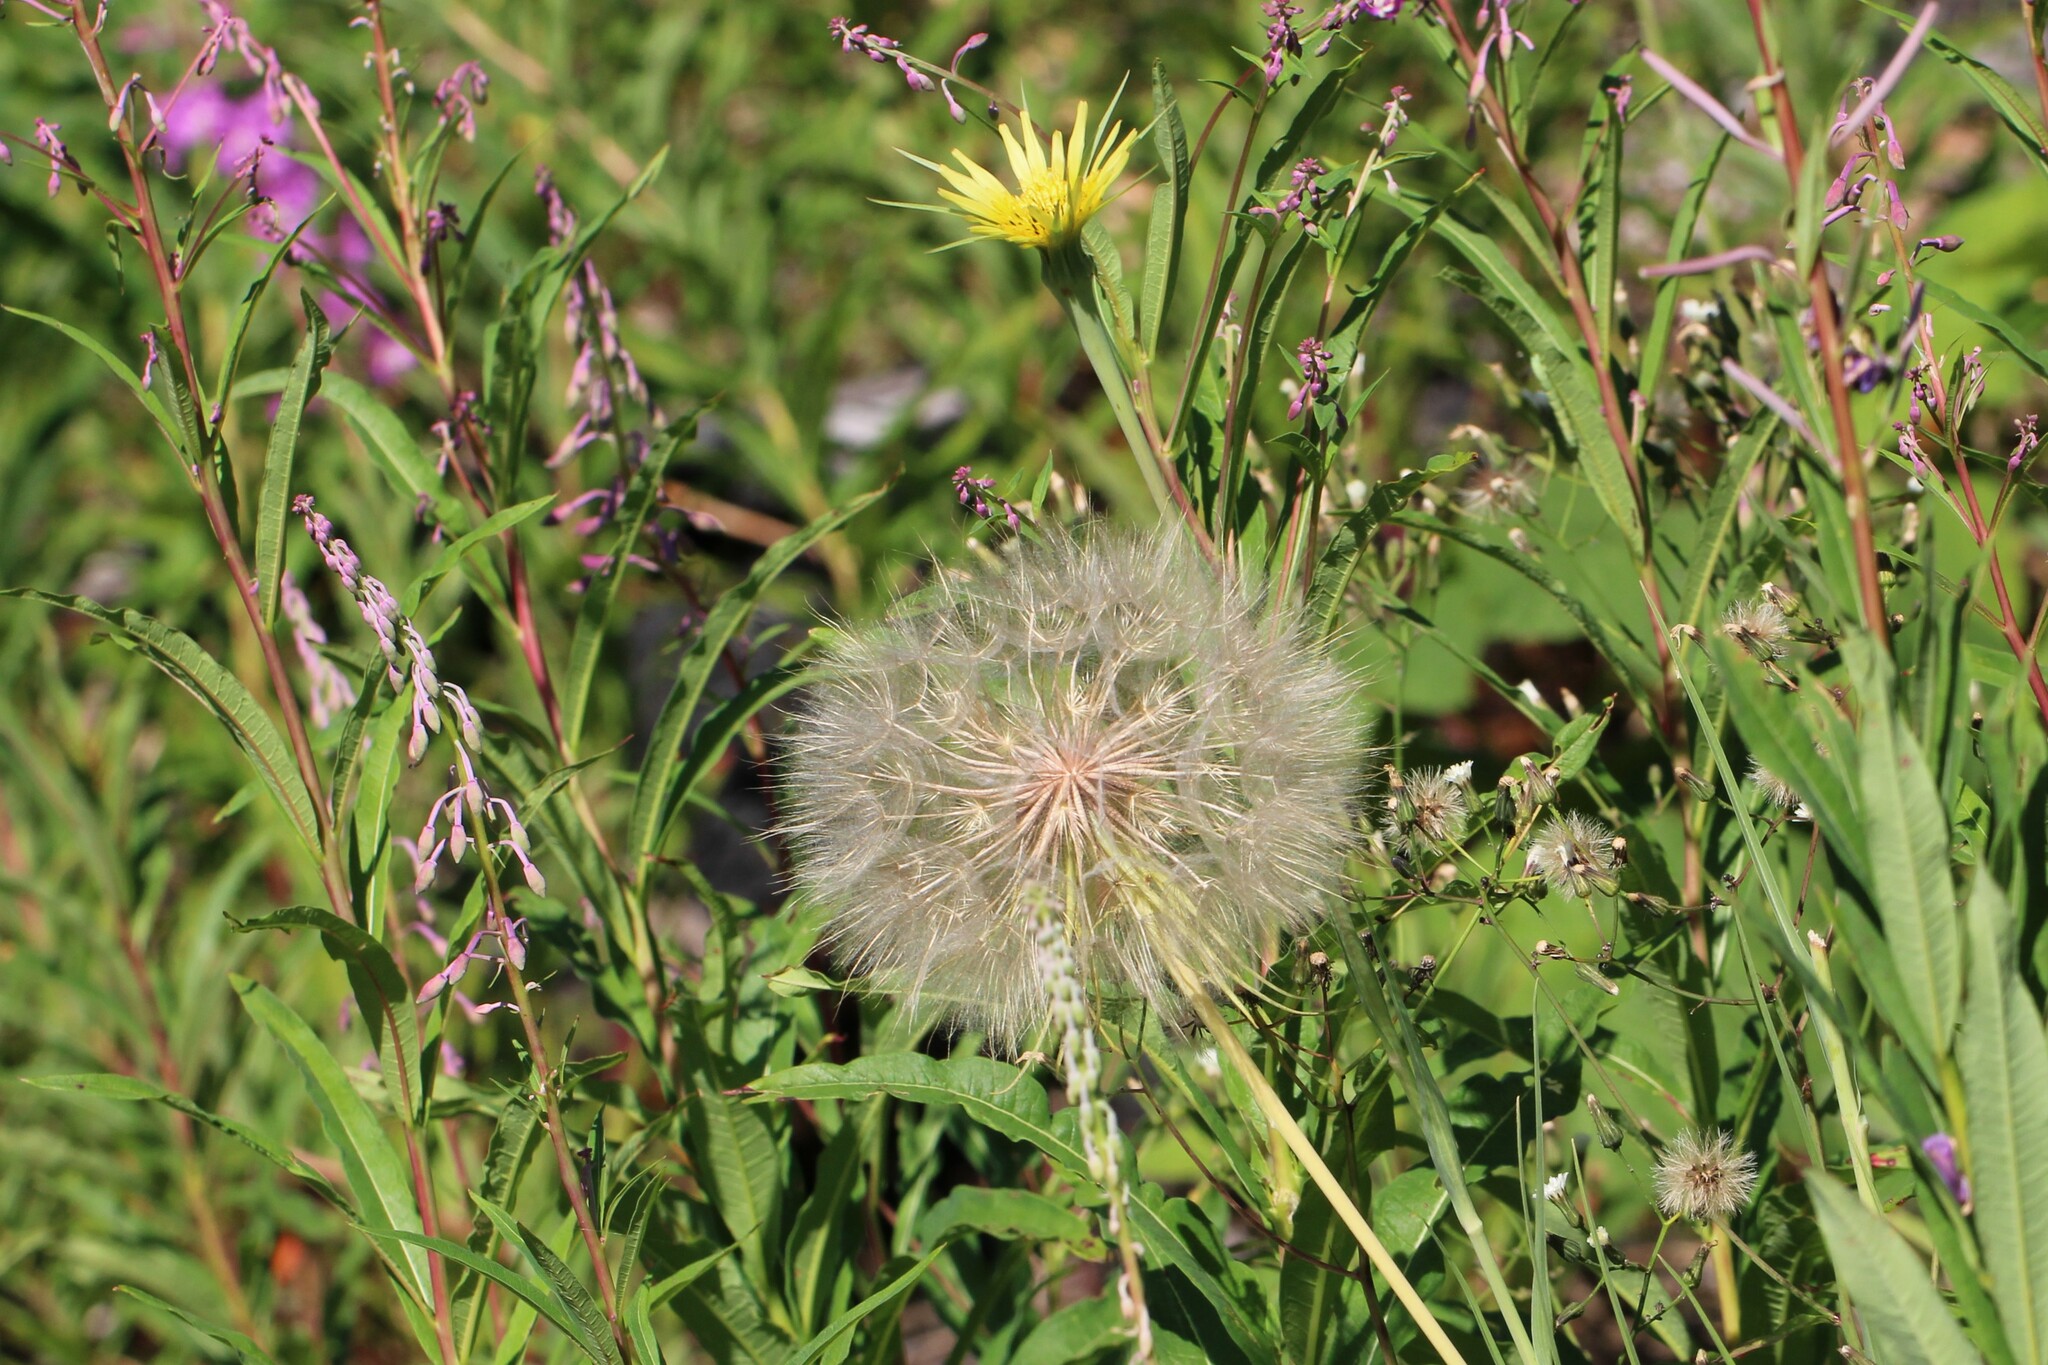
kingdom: Plantae
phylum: Tracheophyta
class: Magnoliopsida
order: Asterales
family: Asteraceae
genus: Tragopogon
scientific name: Tragopogon dubius
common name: Yellow salsify
